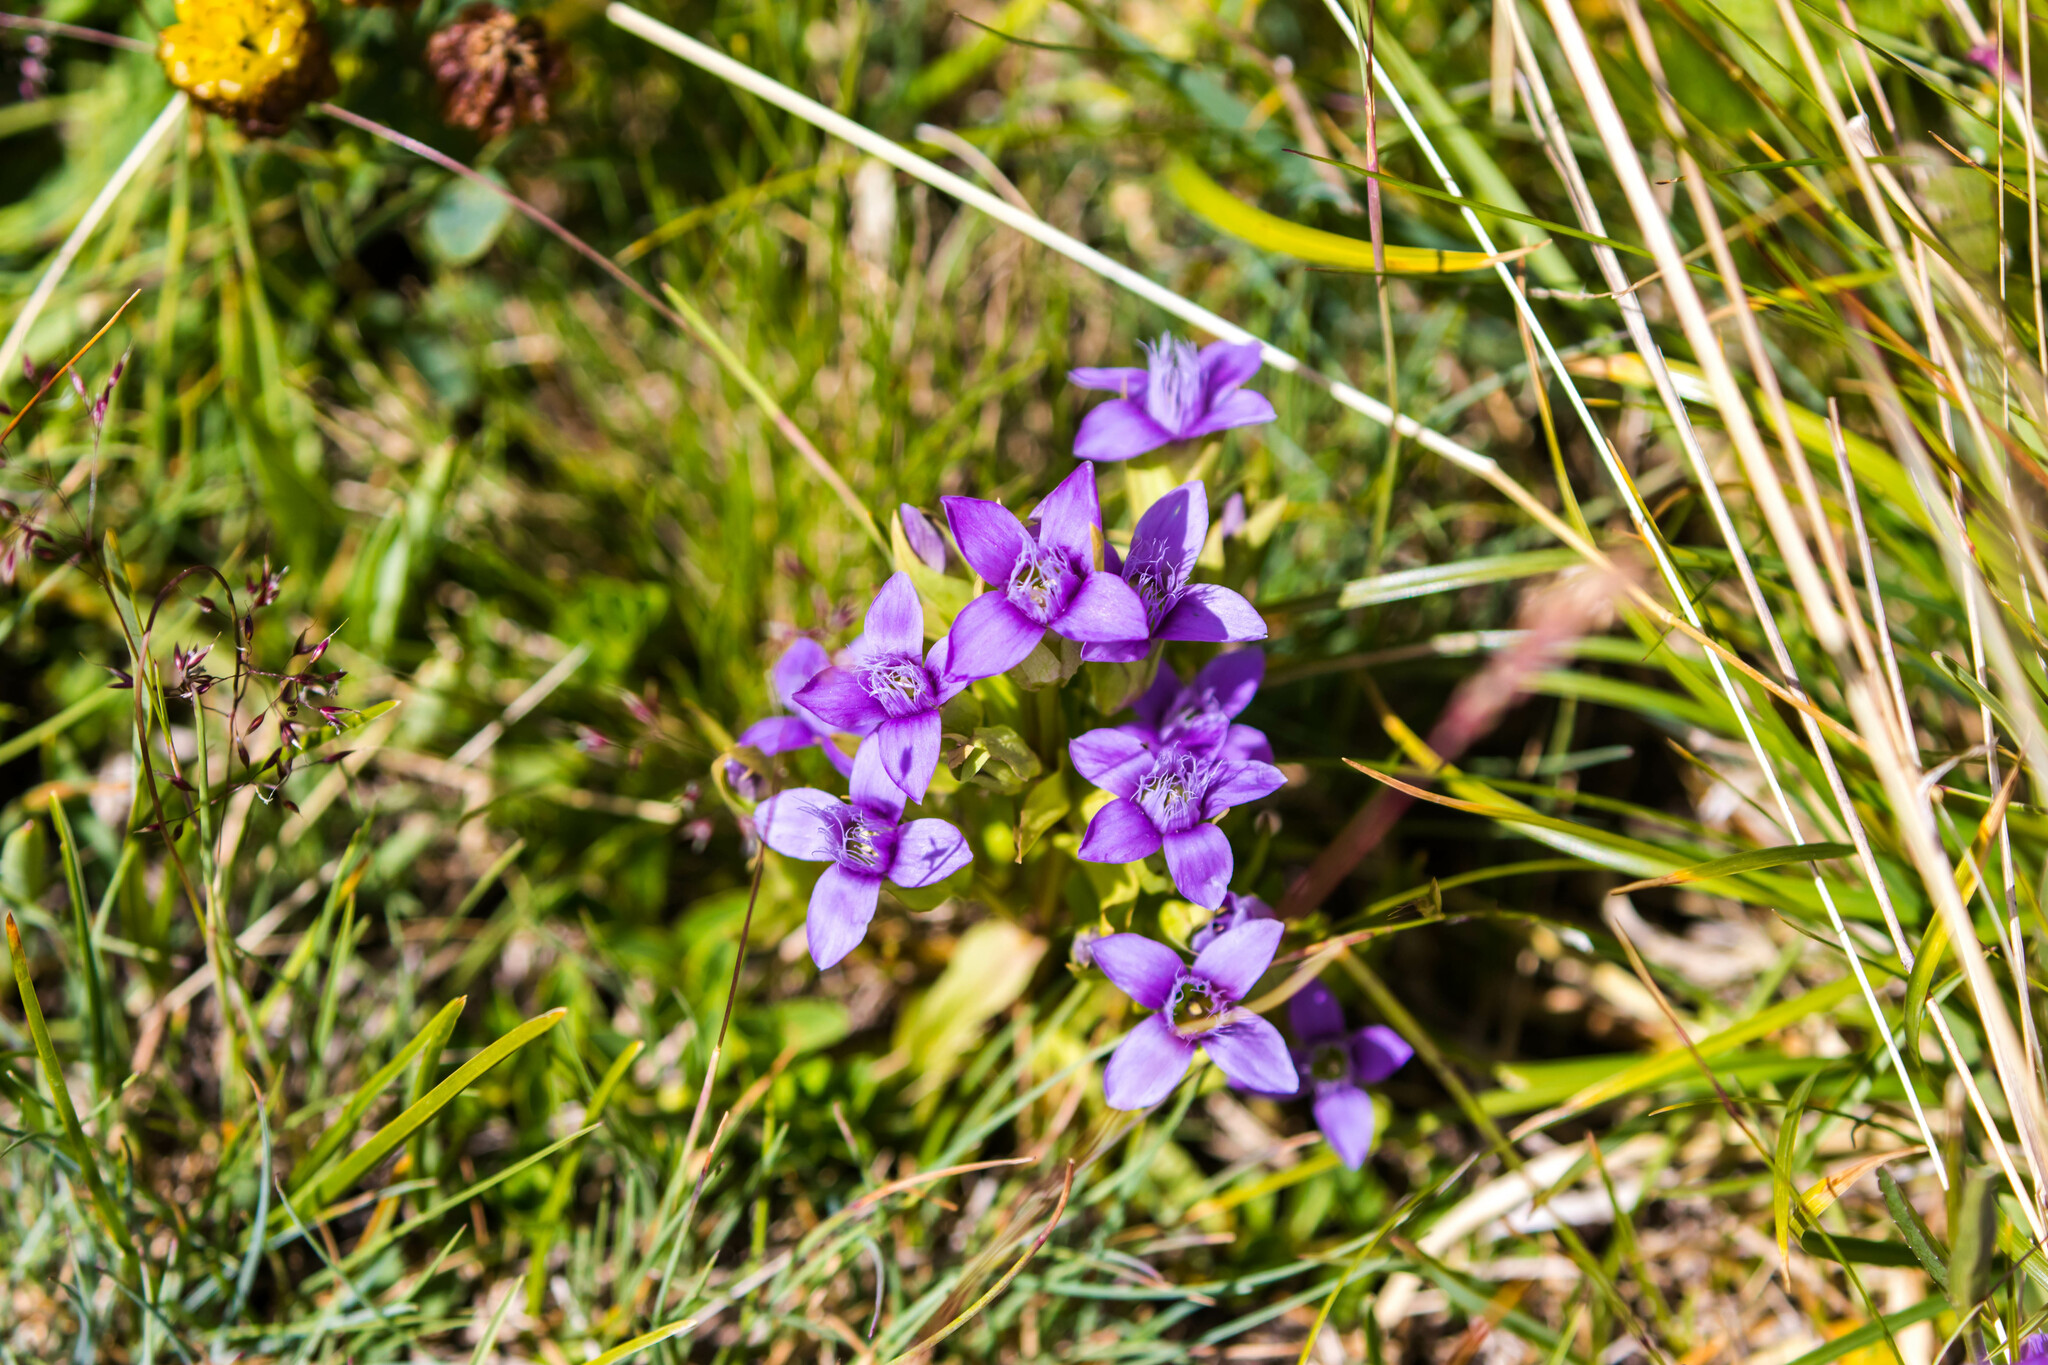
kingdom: Plantae
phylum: Tracheophyta
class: Magnoliopsida
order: Gentianales
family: Gentianaceae
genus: Gentianella
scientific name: Gentianella campestris
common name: Field gentian
